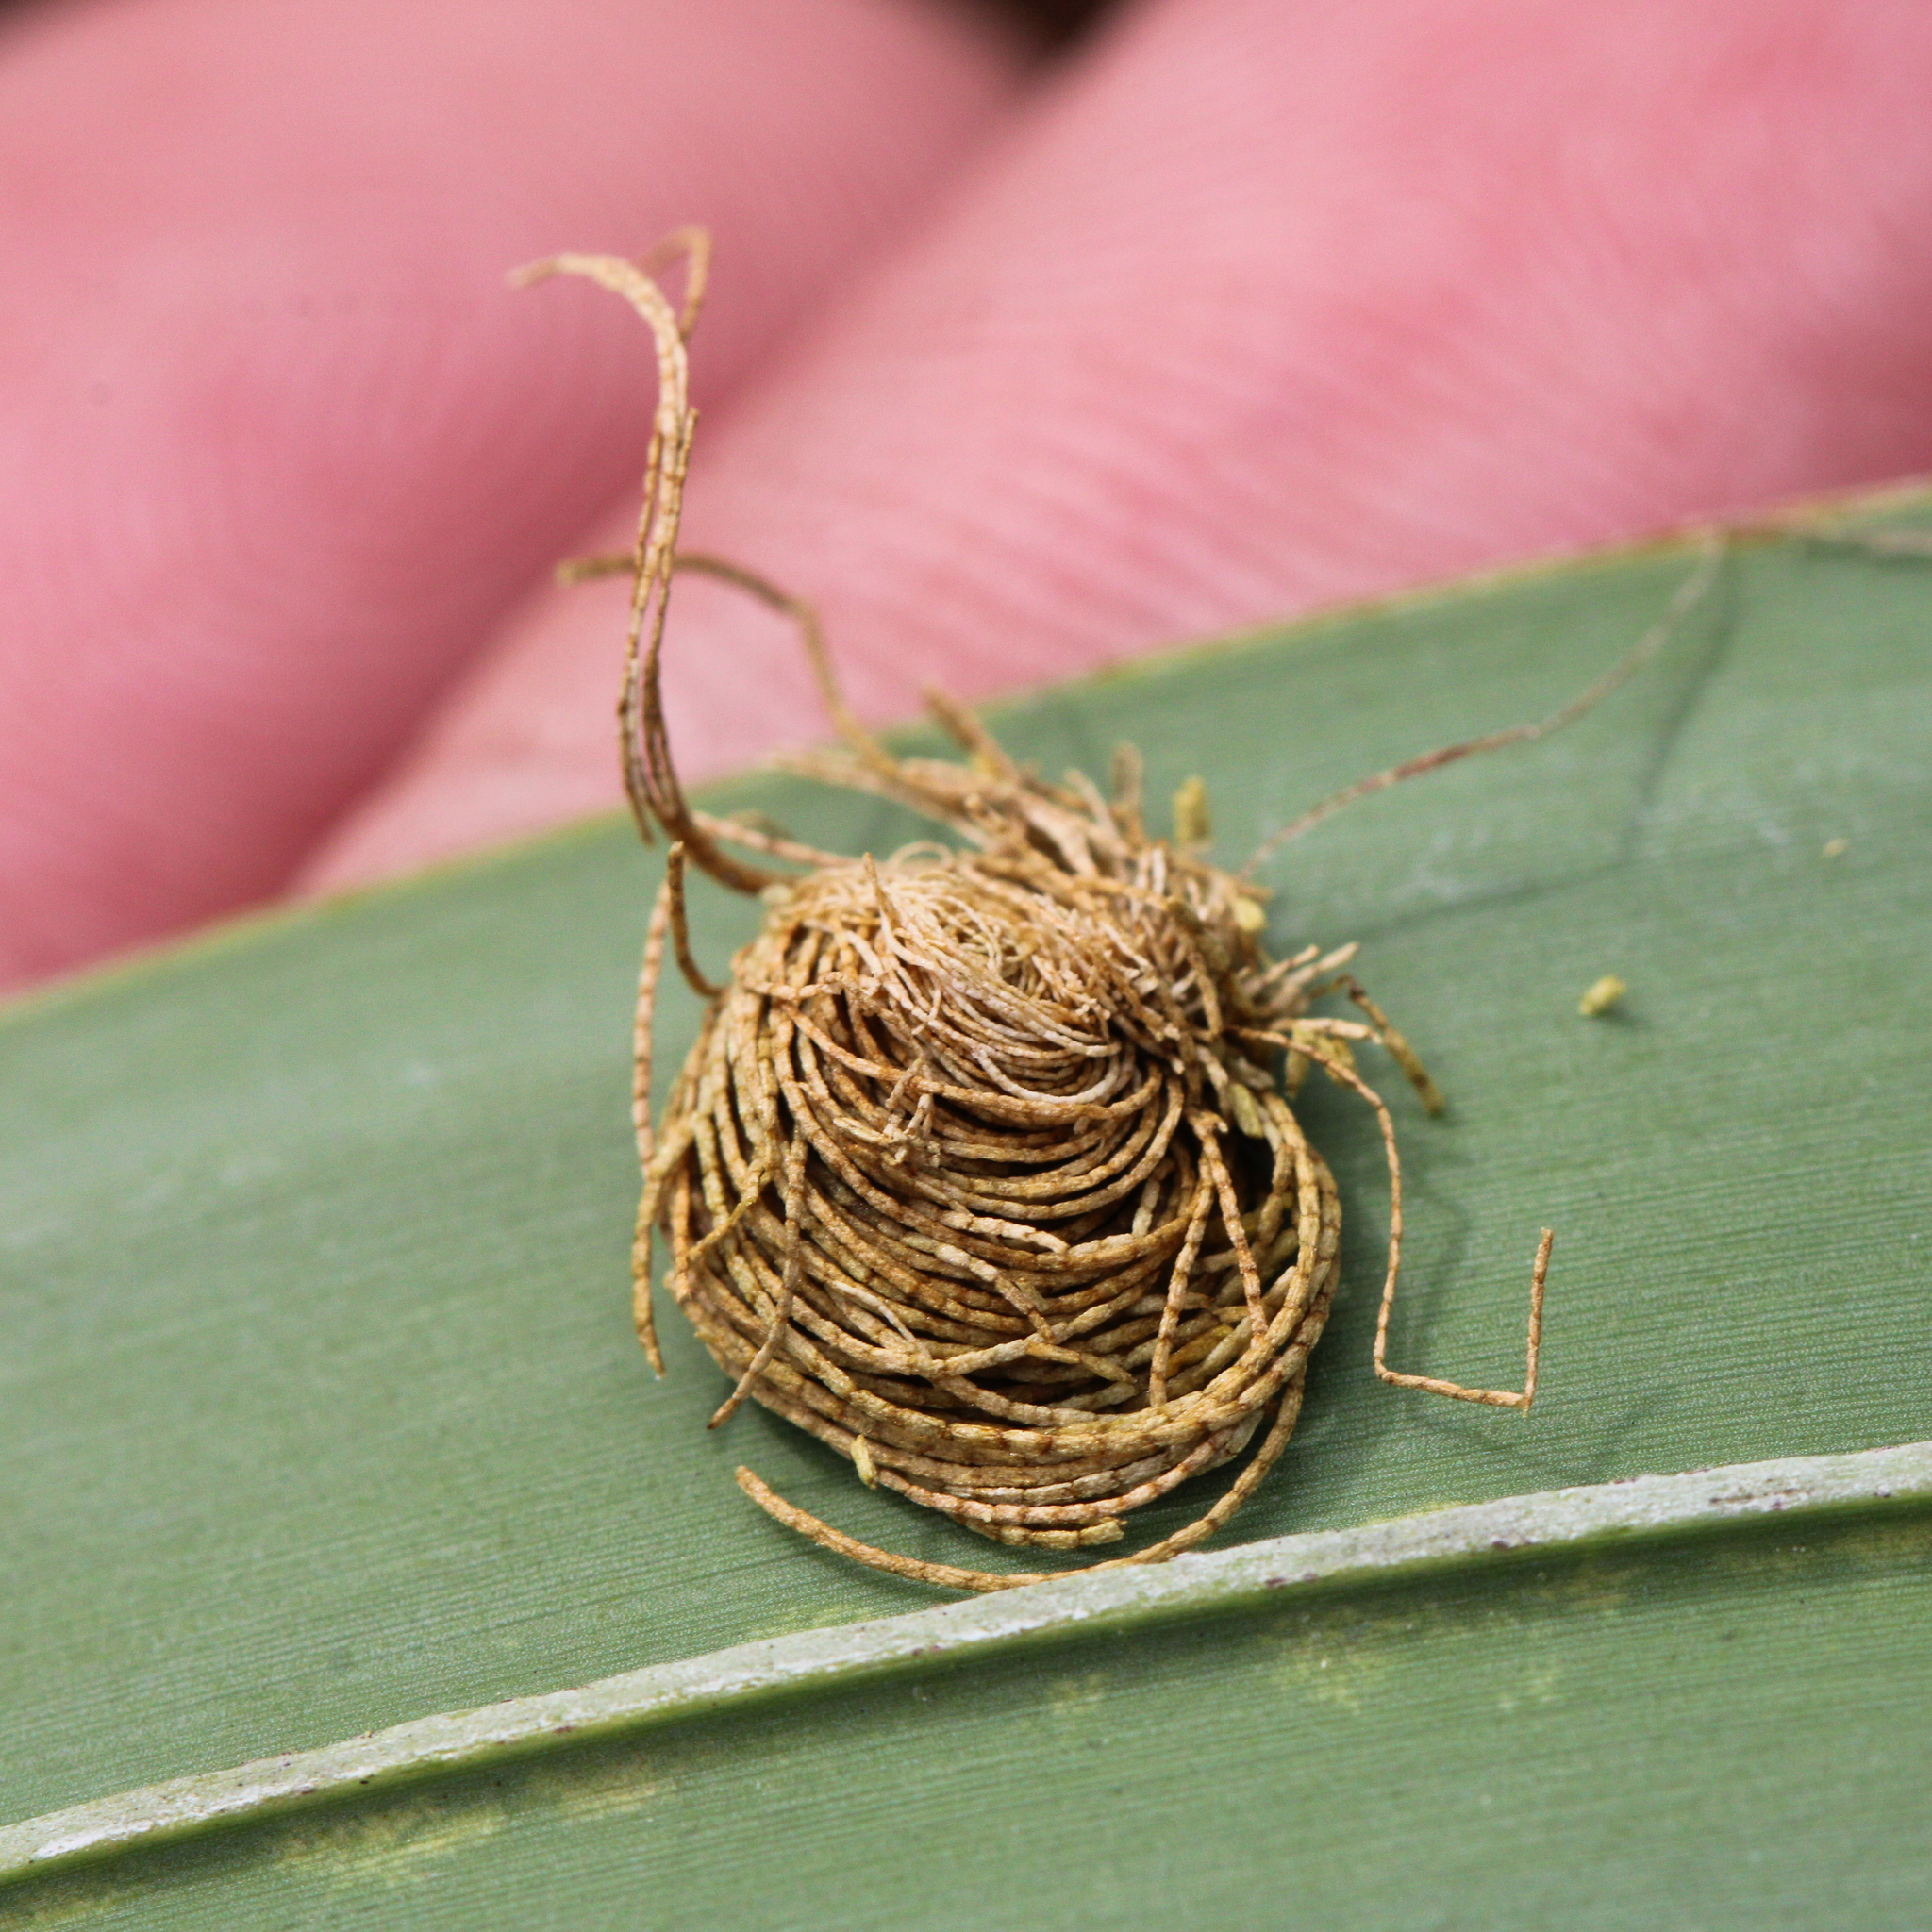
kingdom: Animalia
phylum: Arthropoda
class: Insecta
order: Coleoptera
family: Chrysomelidae
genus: Hemisphaerota
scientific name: Hemisphaerota cyanea
